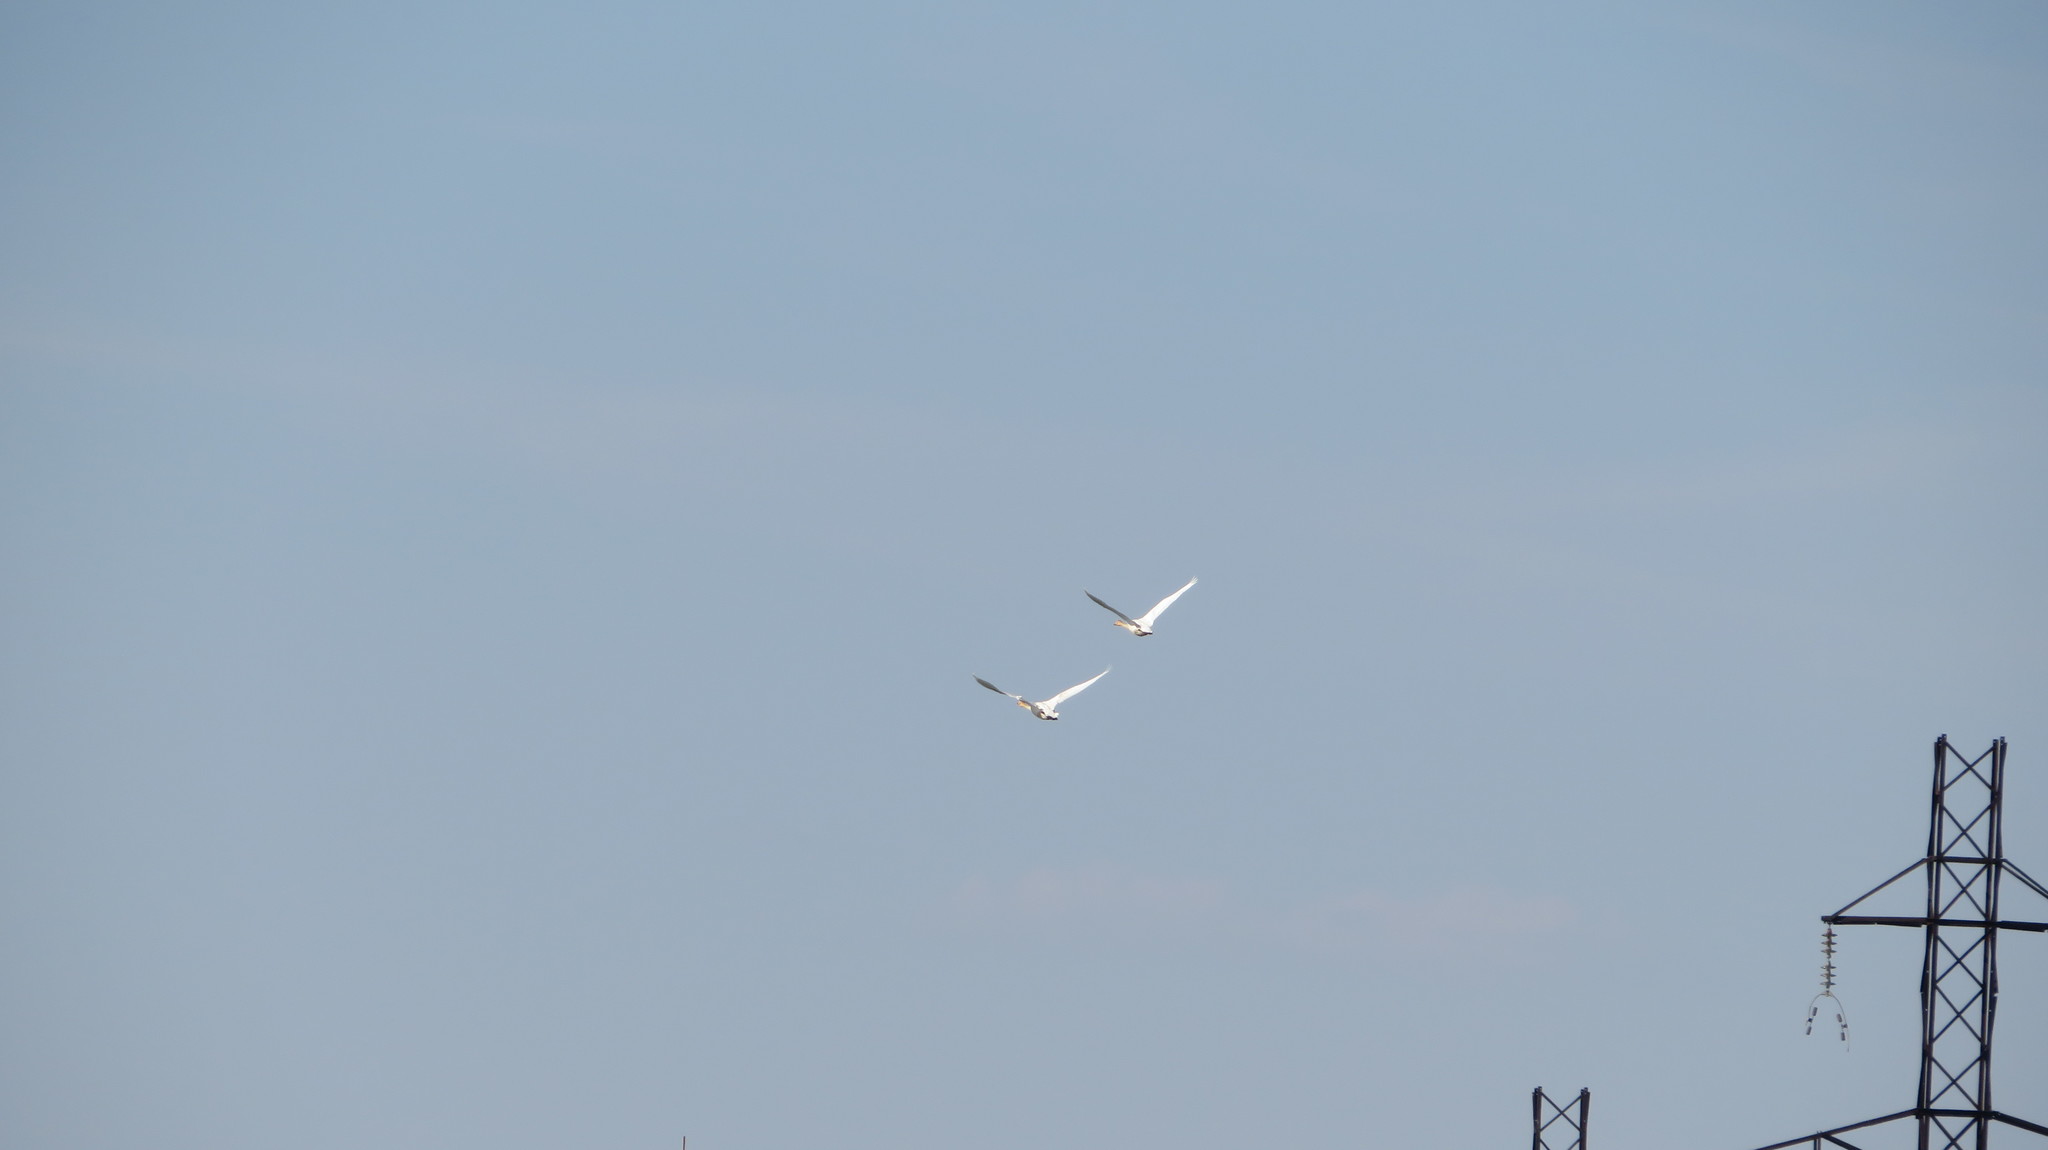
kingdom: Animalia
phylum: Chordata
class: Aves
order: Anseriformes
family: Anatidae
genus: Cygnus
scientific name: Cygnus cygnus
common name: Whooper swan
